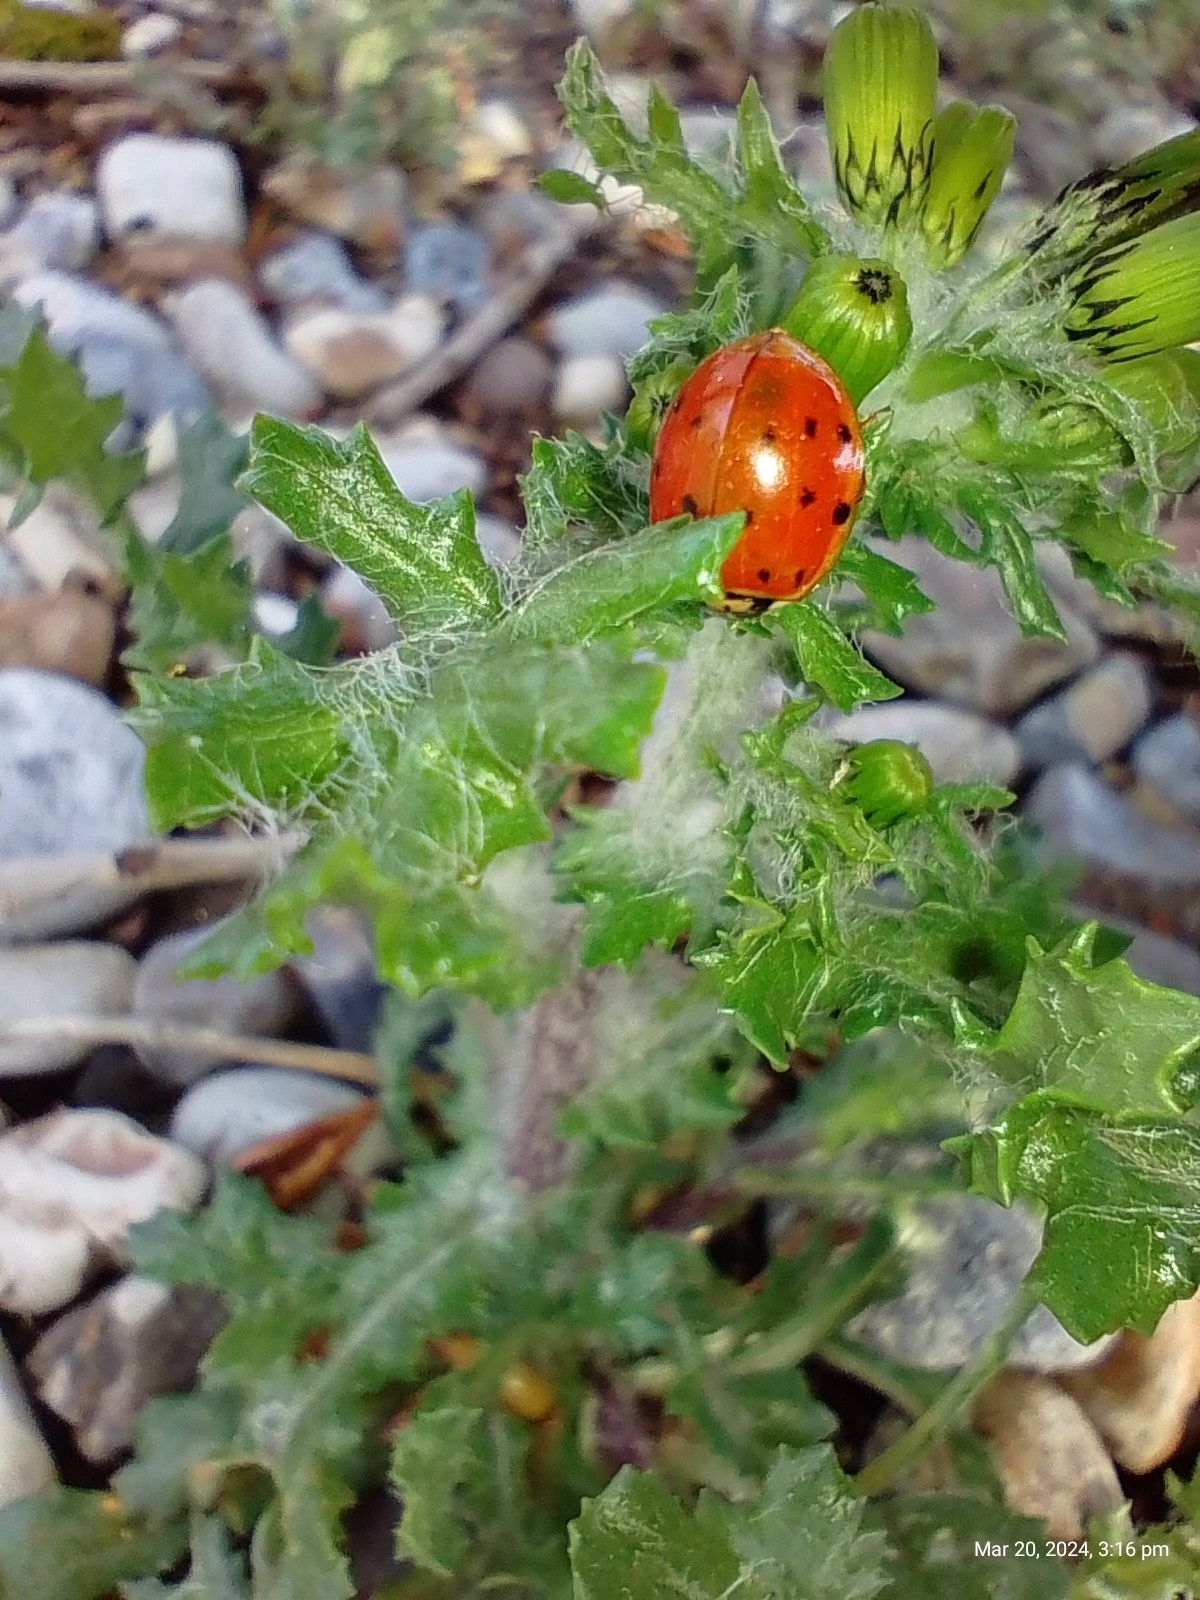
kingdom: Animalia
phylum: Arthropoda
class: Insecta
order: Coleoptera
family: Coccinellidae
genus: Harmonia
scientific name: Harmonia axyridis
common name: Harlequin ladybird
